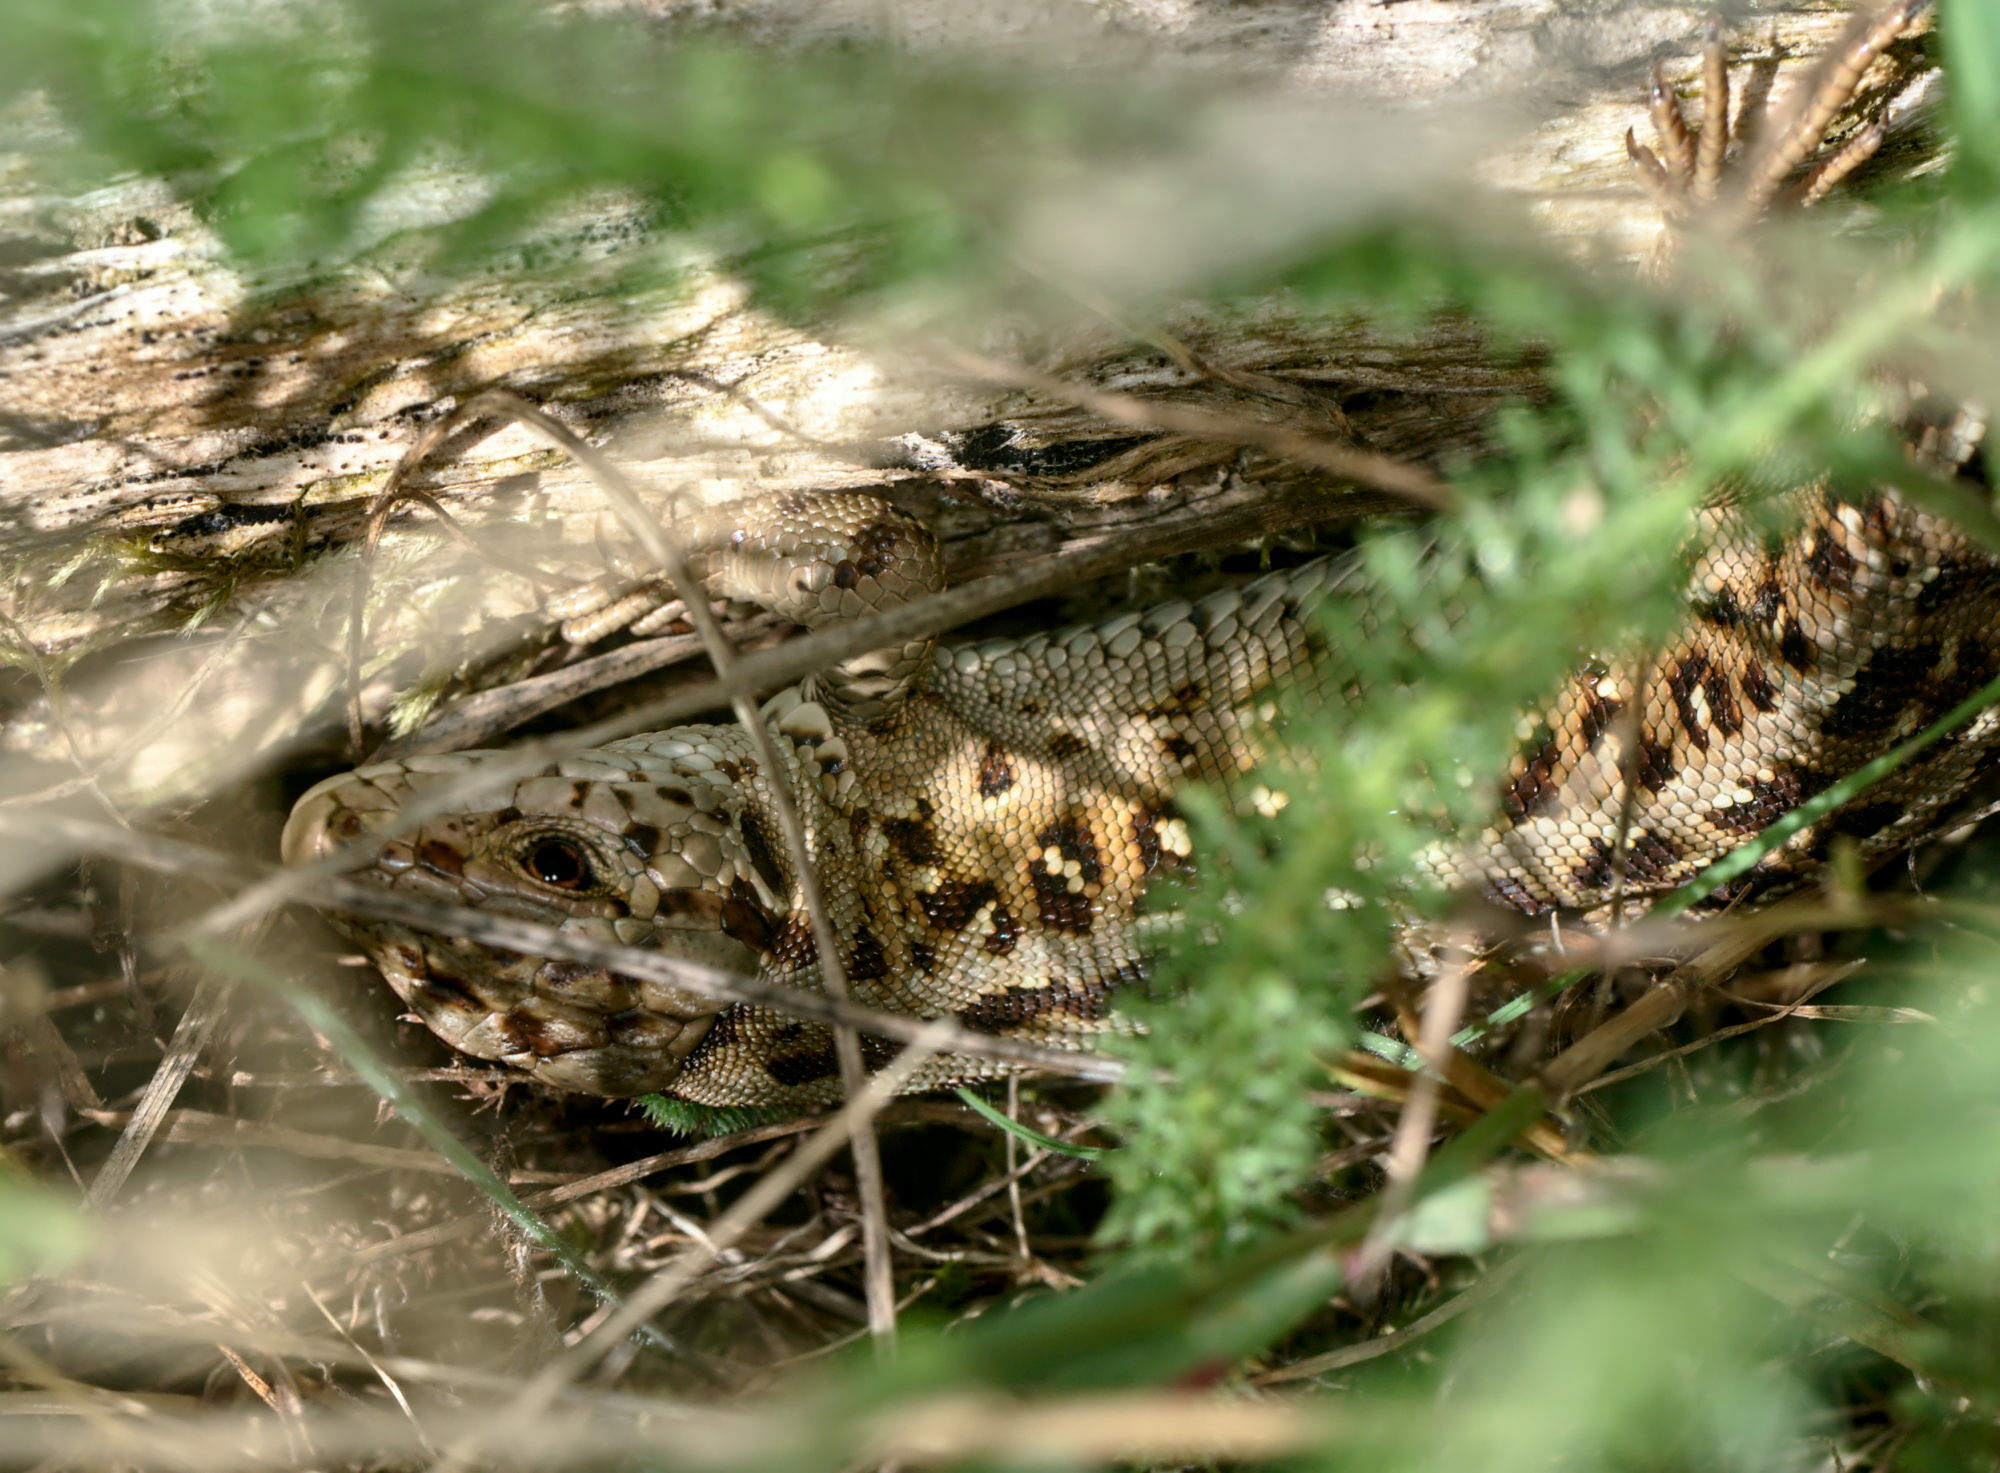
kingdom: Animalia
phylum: Chordata
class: Squamata
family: Lacertidae
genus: Lacerta
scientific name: Lacerta agilis
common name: Sand lizard
